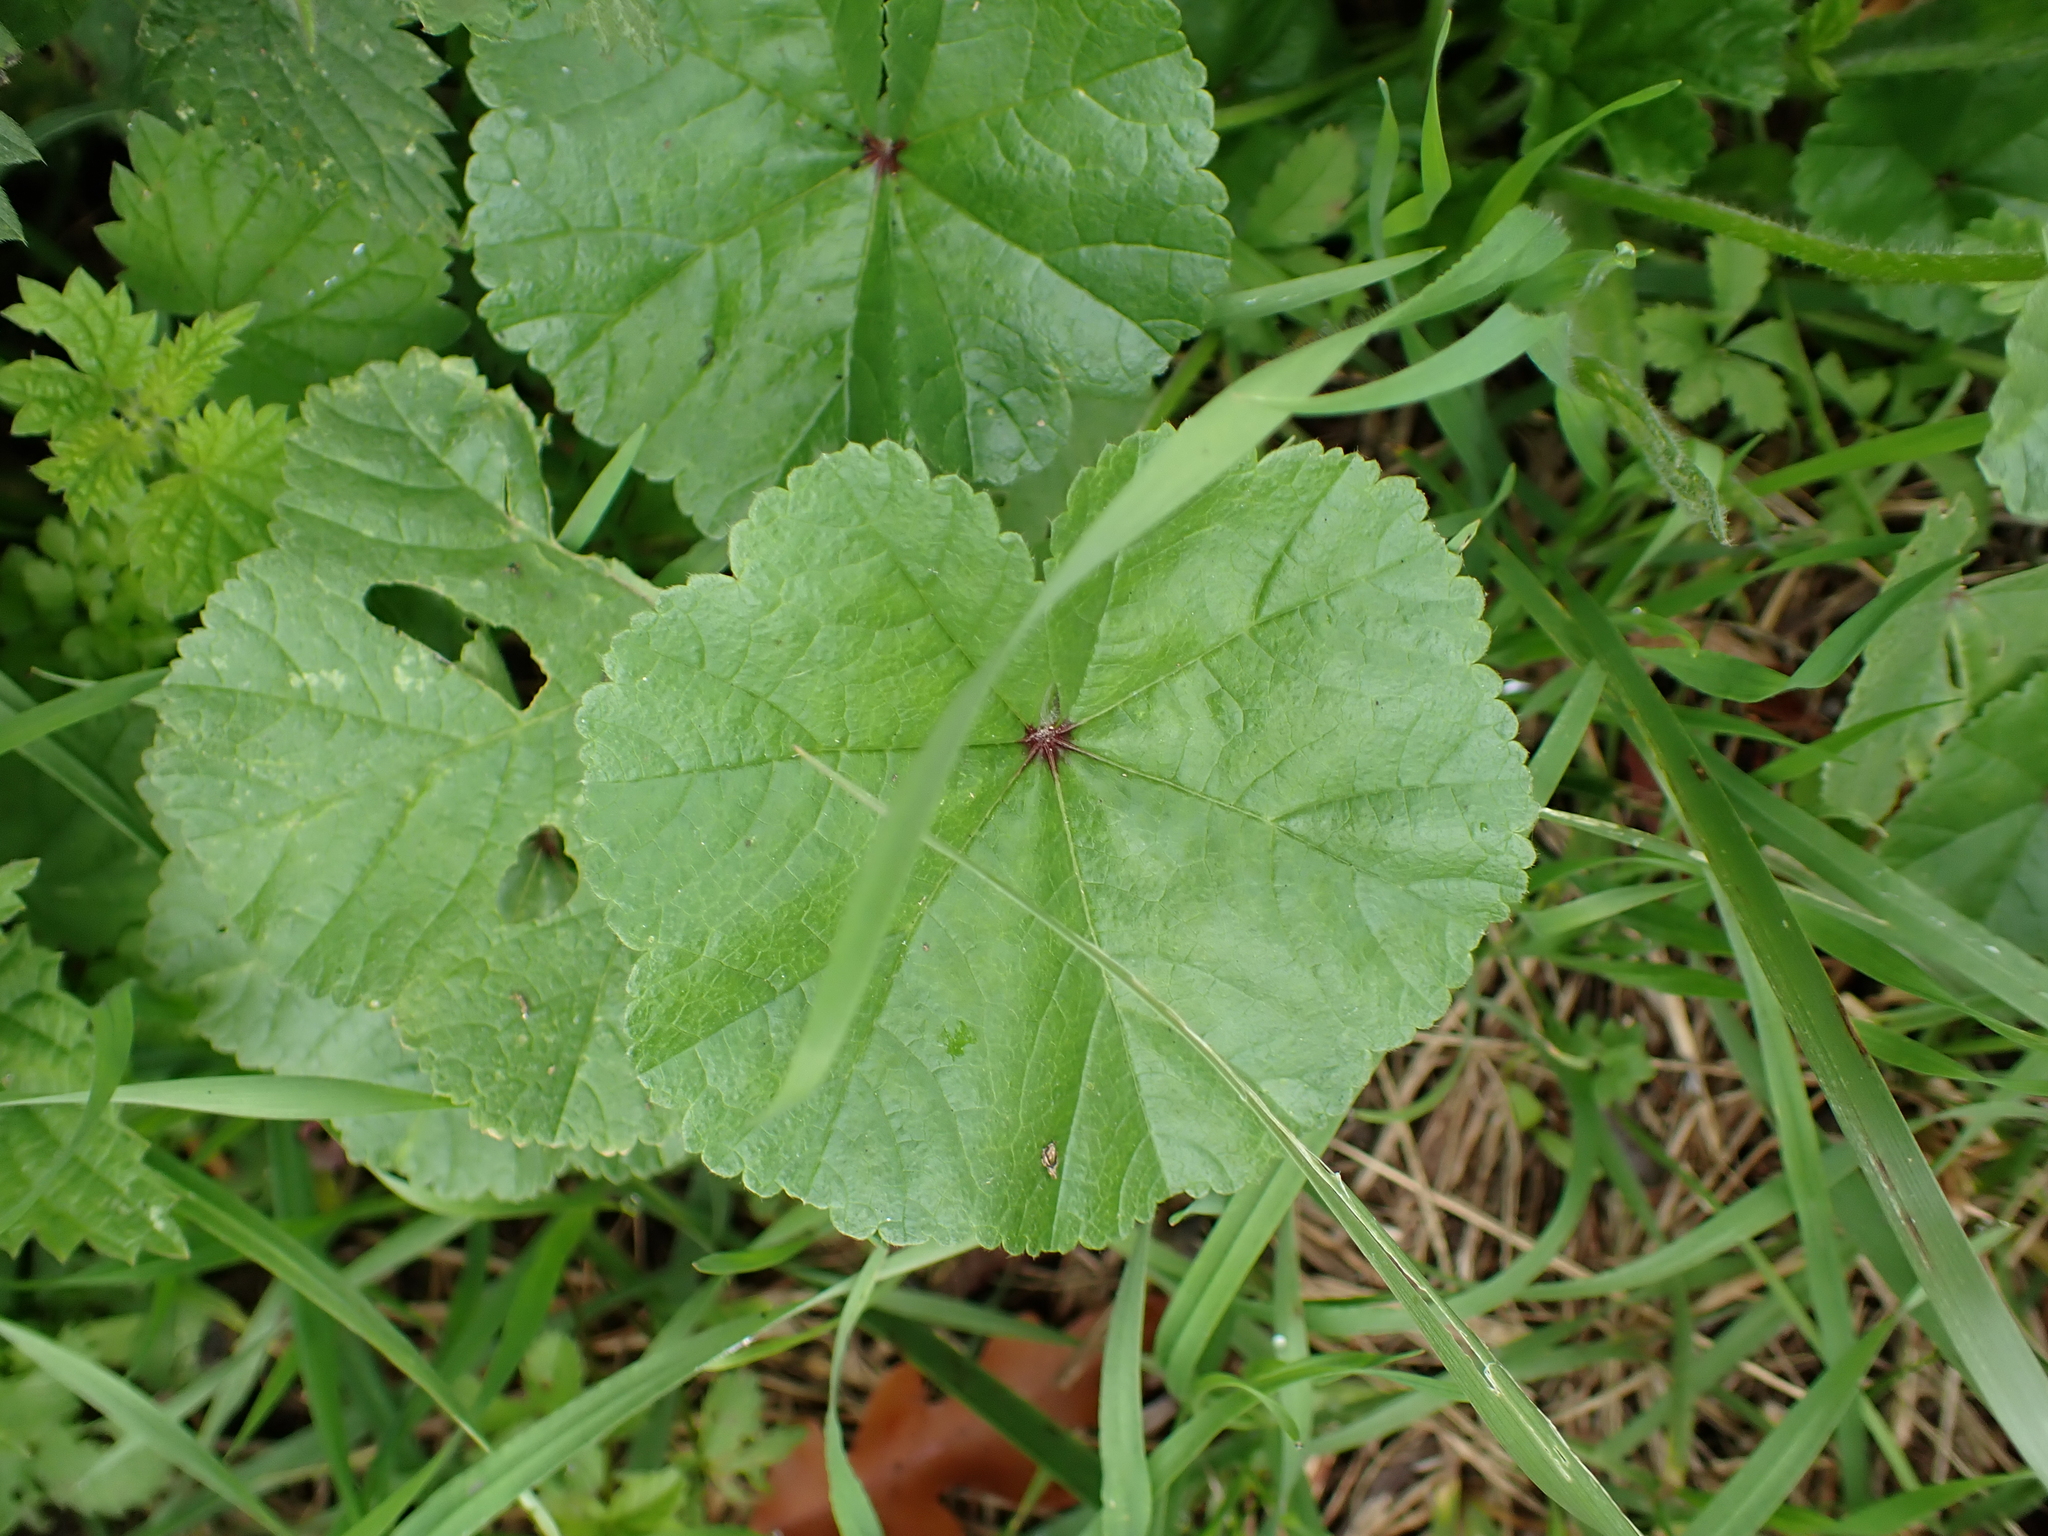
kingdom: Plantae
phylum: Tracheophyta
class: Magnoliopsida
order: Malvales
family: Malvaceae
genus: Malva
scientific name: Malva sylvestris
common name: Common mallow
